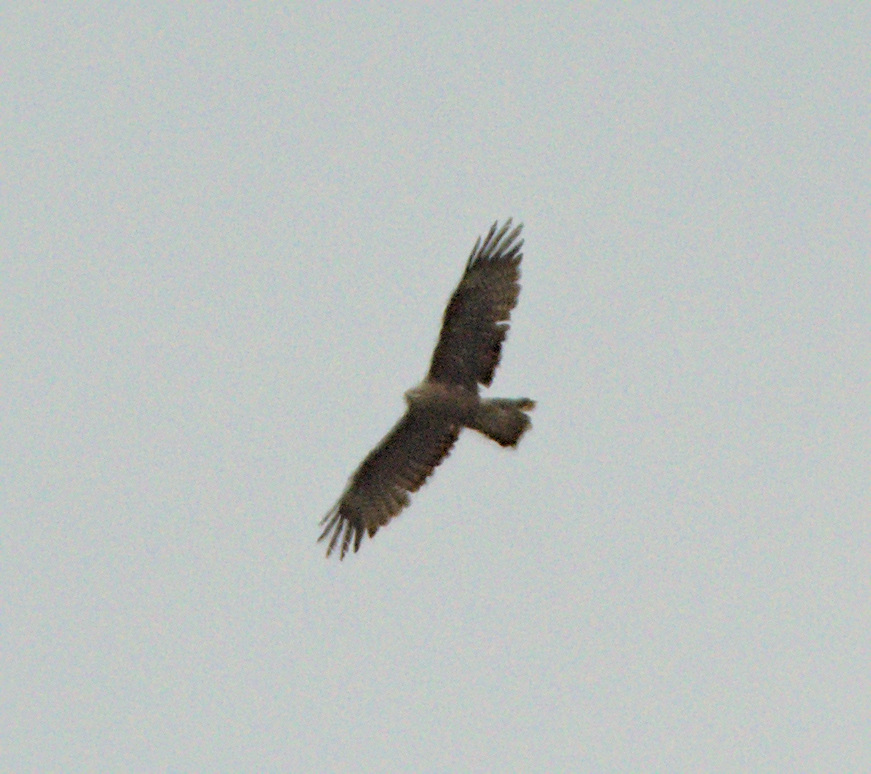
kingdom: Animalia
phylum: Chordata
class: Aves
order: Accipitriformes
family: Accipitridae
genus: Milvus
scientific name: Milvus migrans
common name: Black kite
